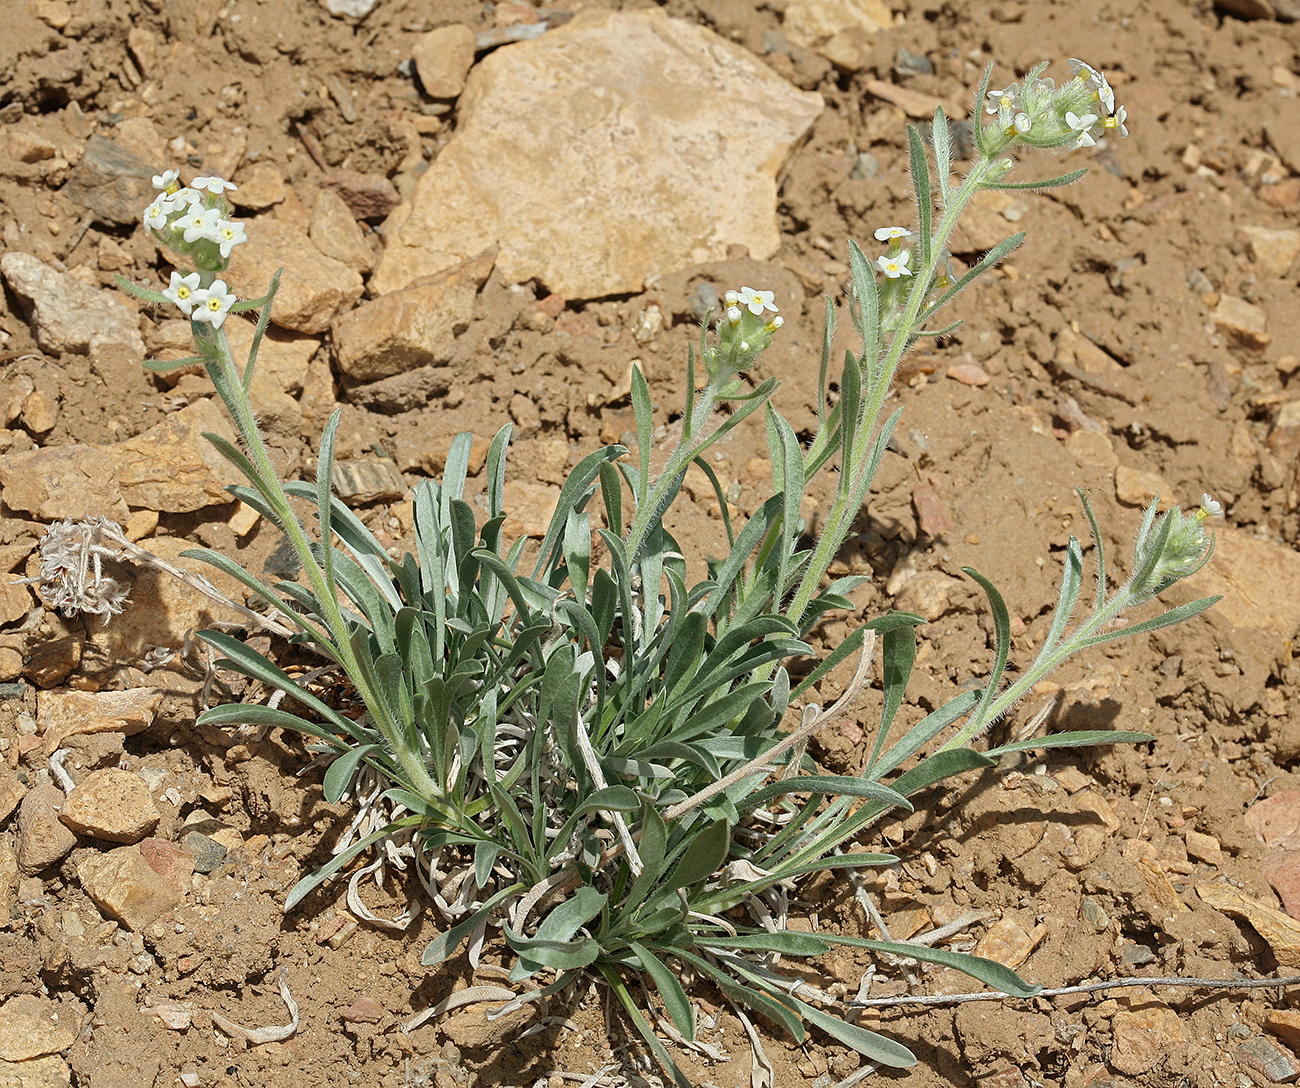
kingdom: Plantae
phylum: Tracheophyta
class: Magnoliopsida
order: Boraginales
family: Boraginaceae
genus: Oreocarya
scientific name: Oreocarya flavoculata
